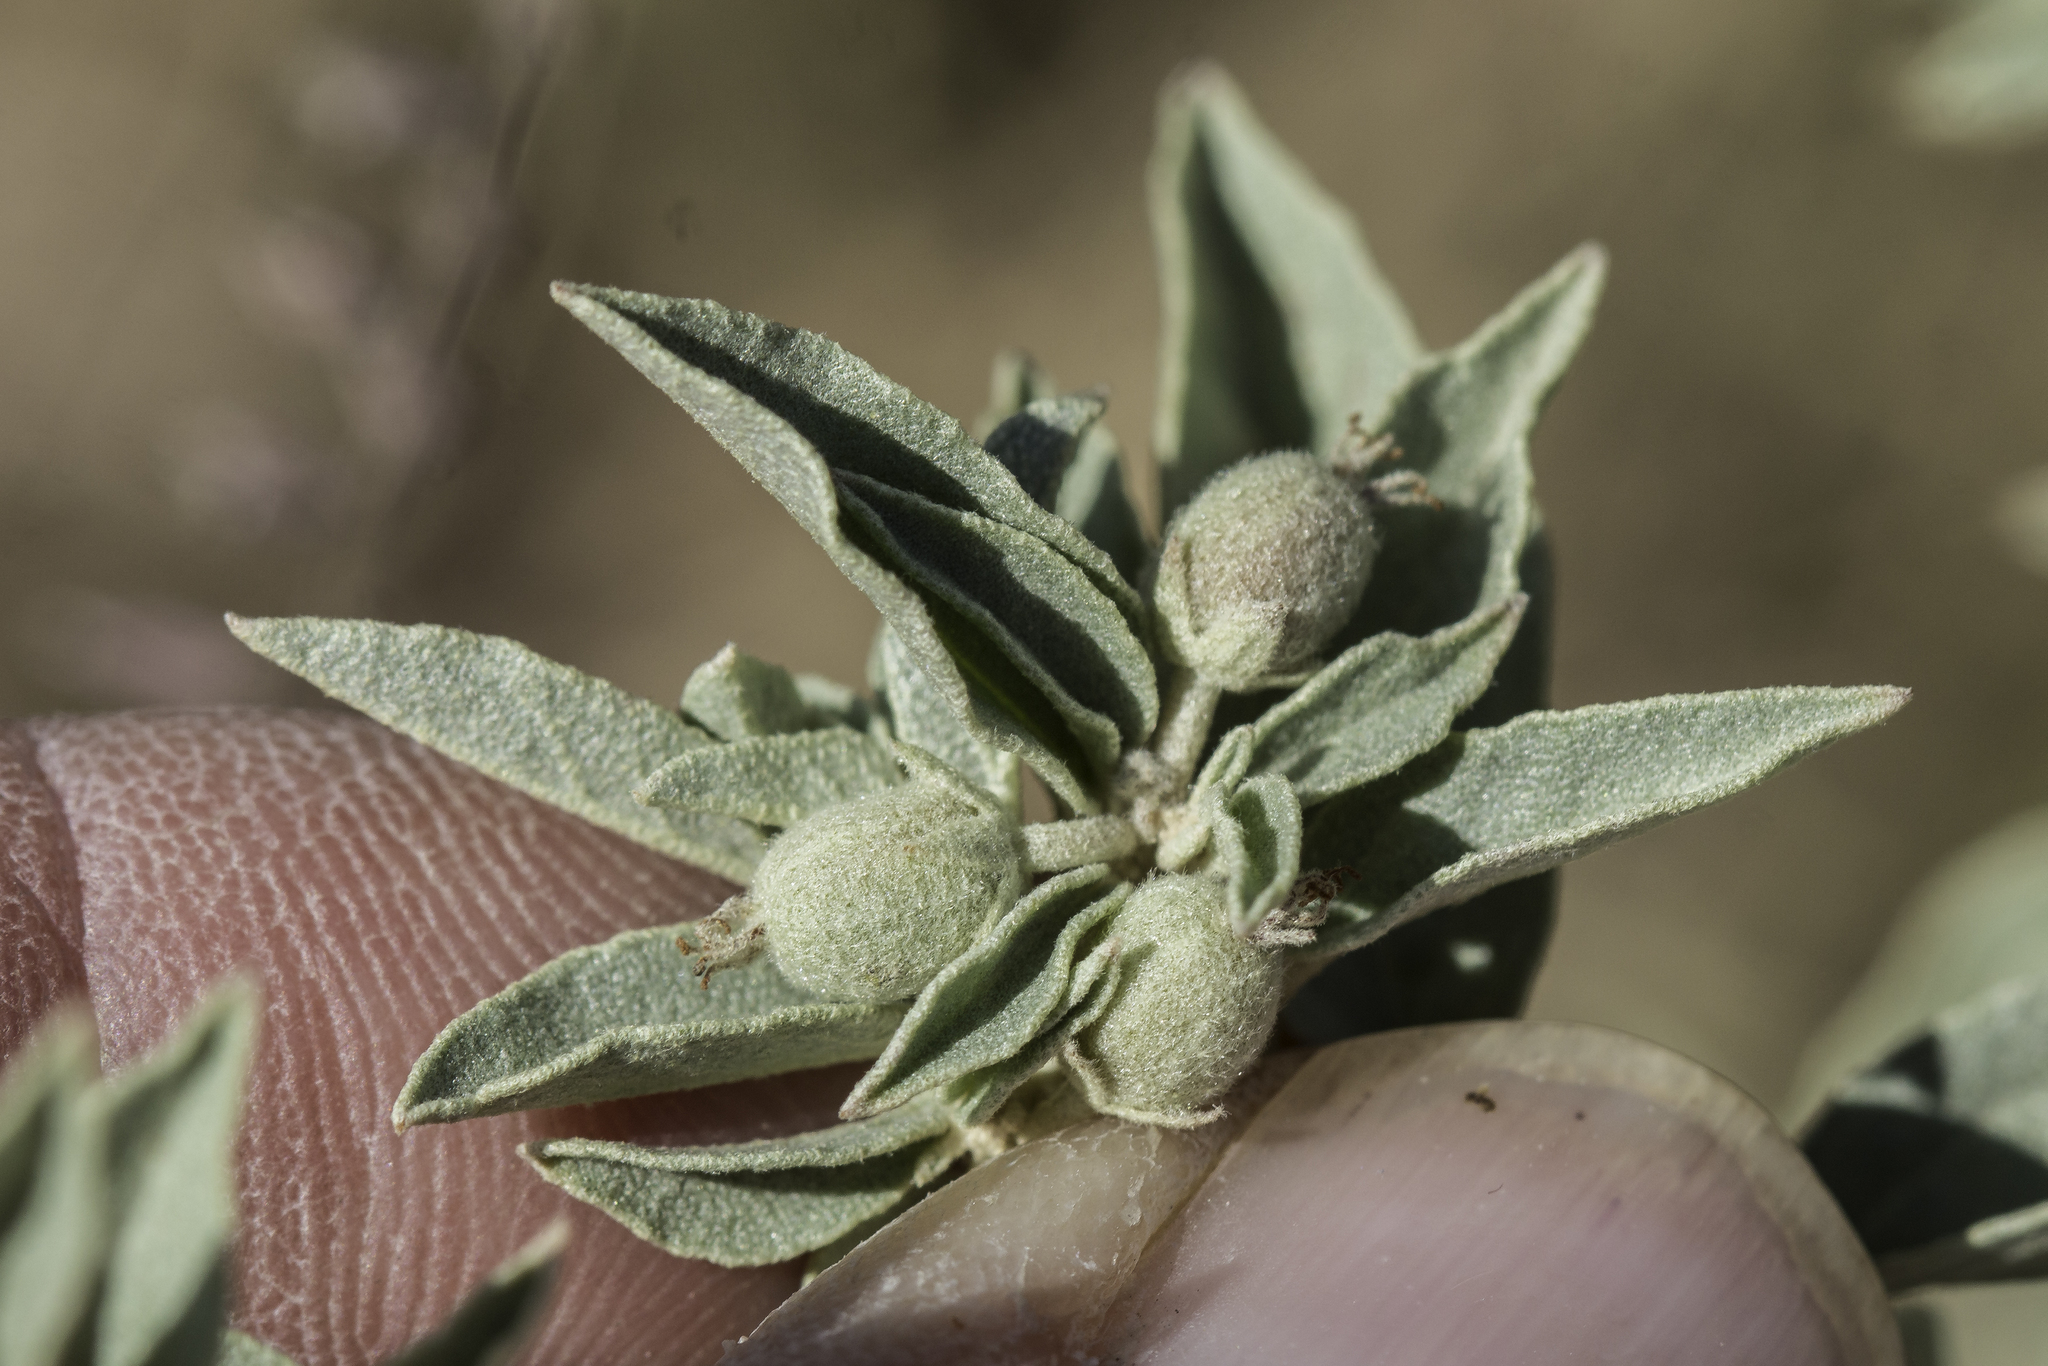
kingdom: Plantae
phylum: Tracheophyta
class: Magnoliopsida
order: Malpighiales
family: Euphorbiaceae
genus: Croton
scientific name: Croton pottsii
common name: Leatherweed
